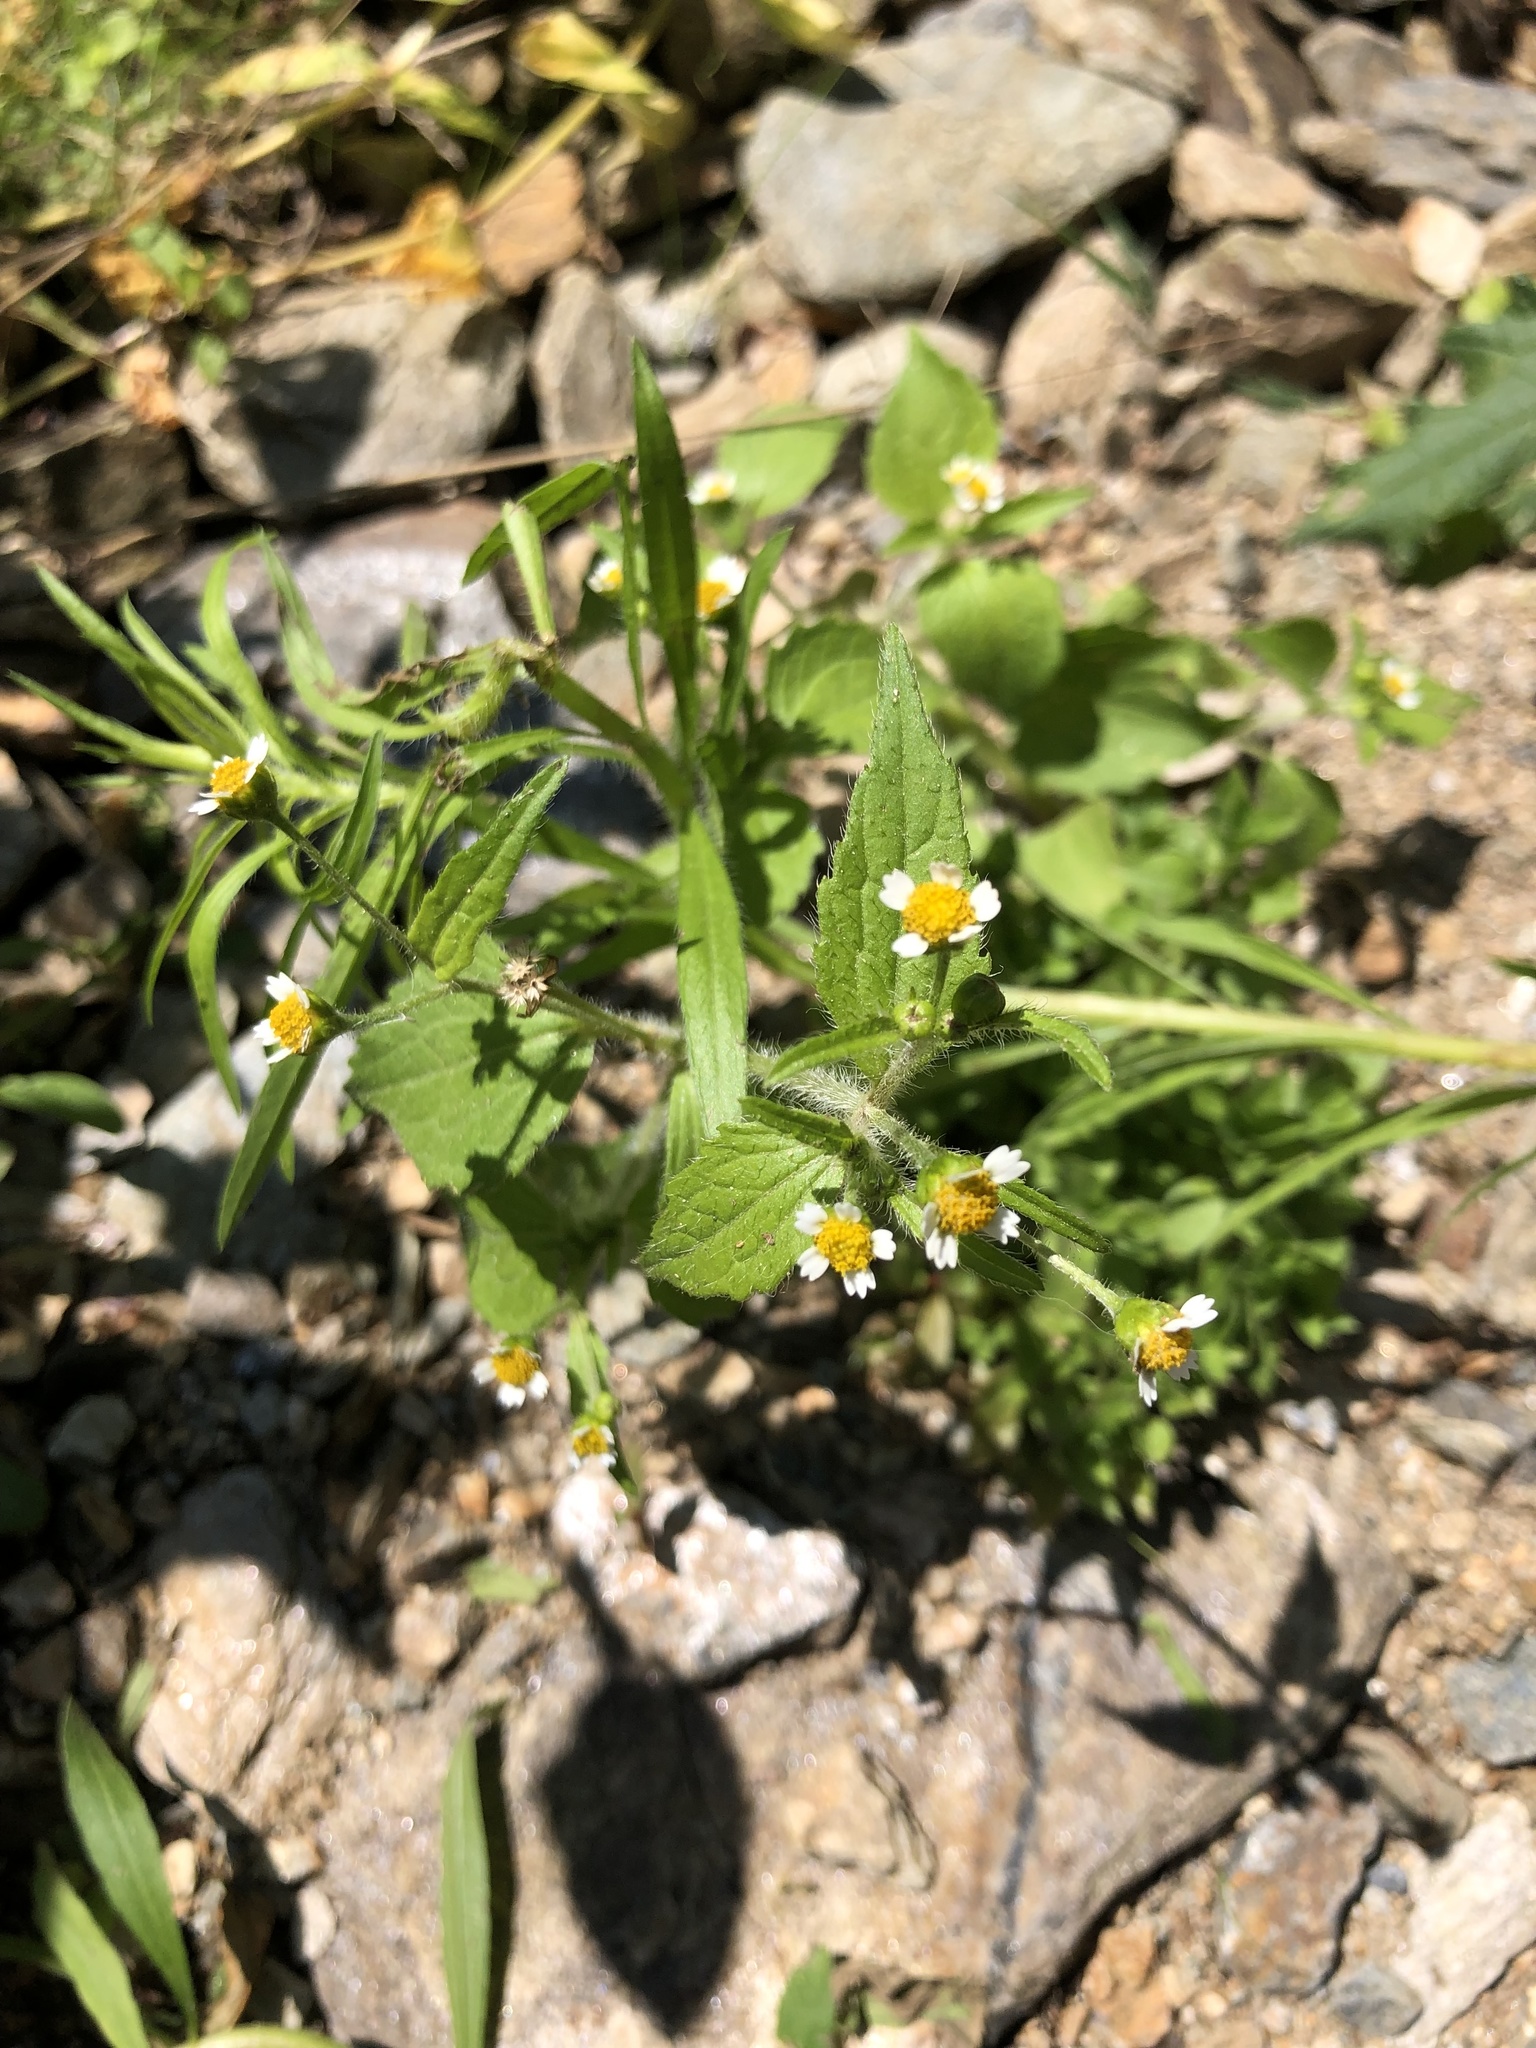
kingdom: Plantae
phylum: Tracheophyta
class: Magnoliopsida
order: Asterales
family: Asteraceae
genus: Galinsoga
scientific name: Galinsoga quadriradiata
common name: Shaggy soldier
